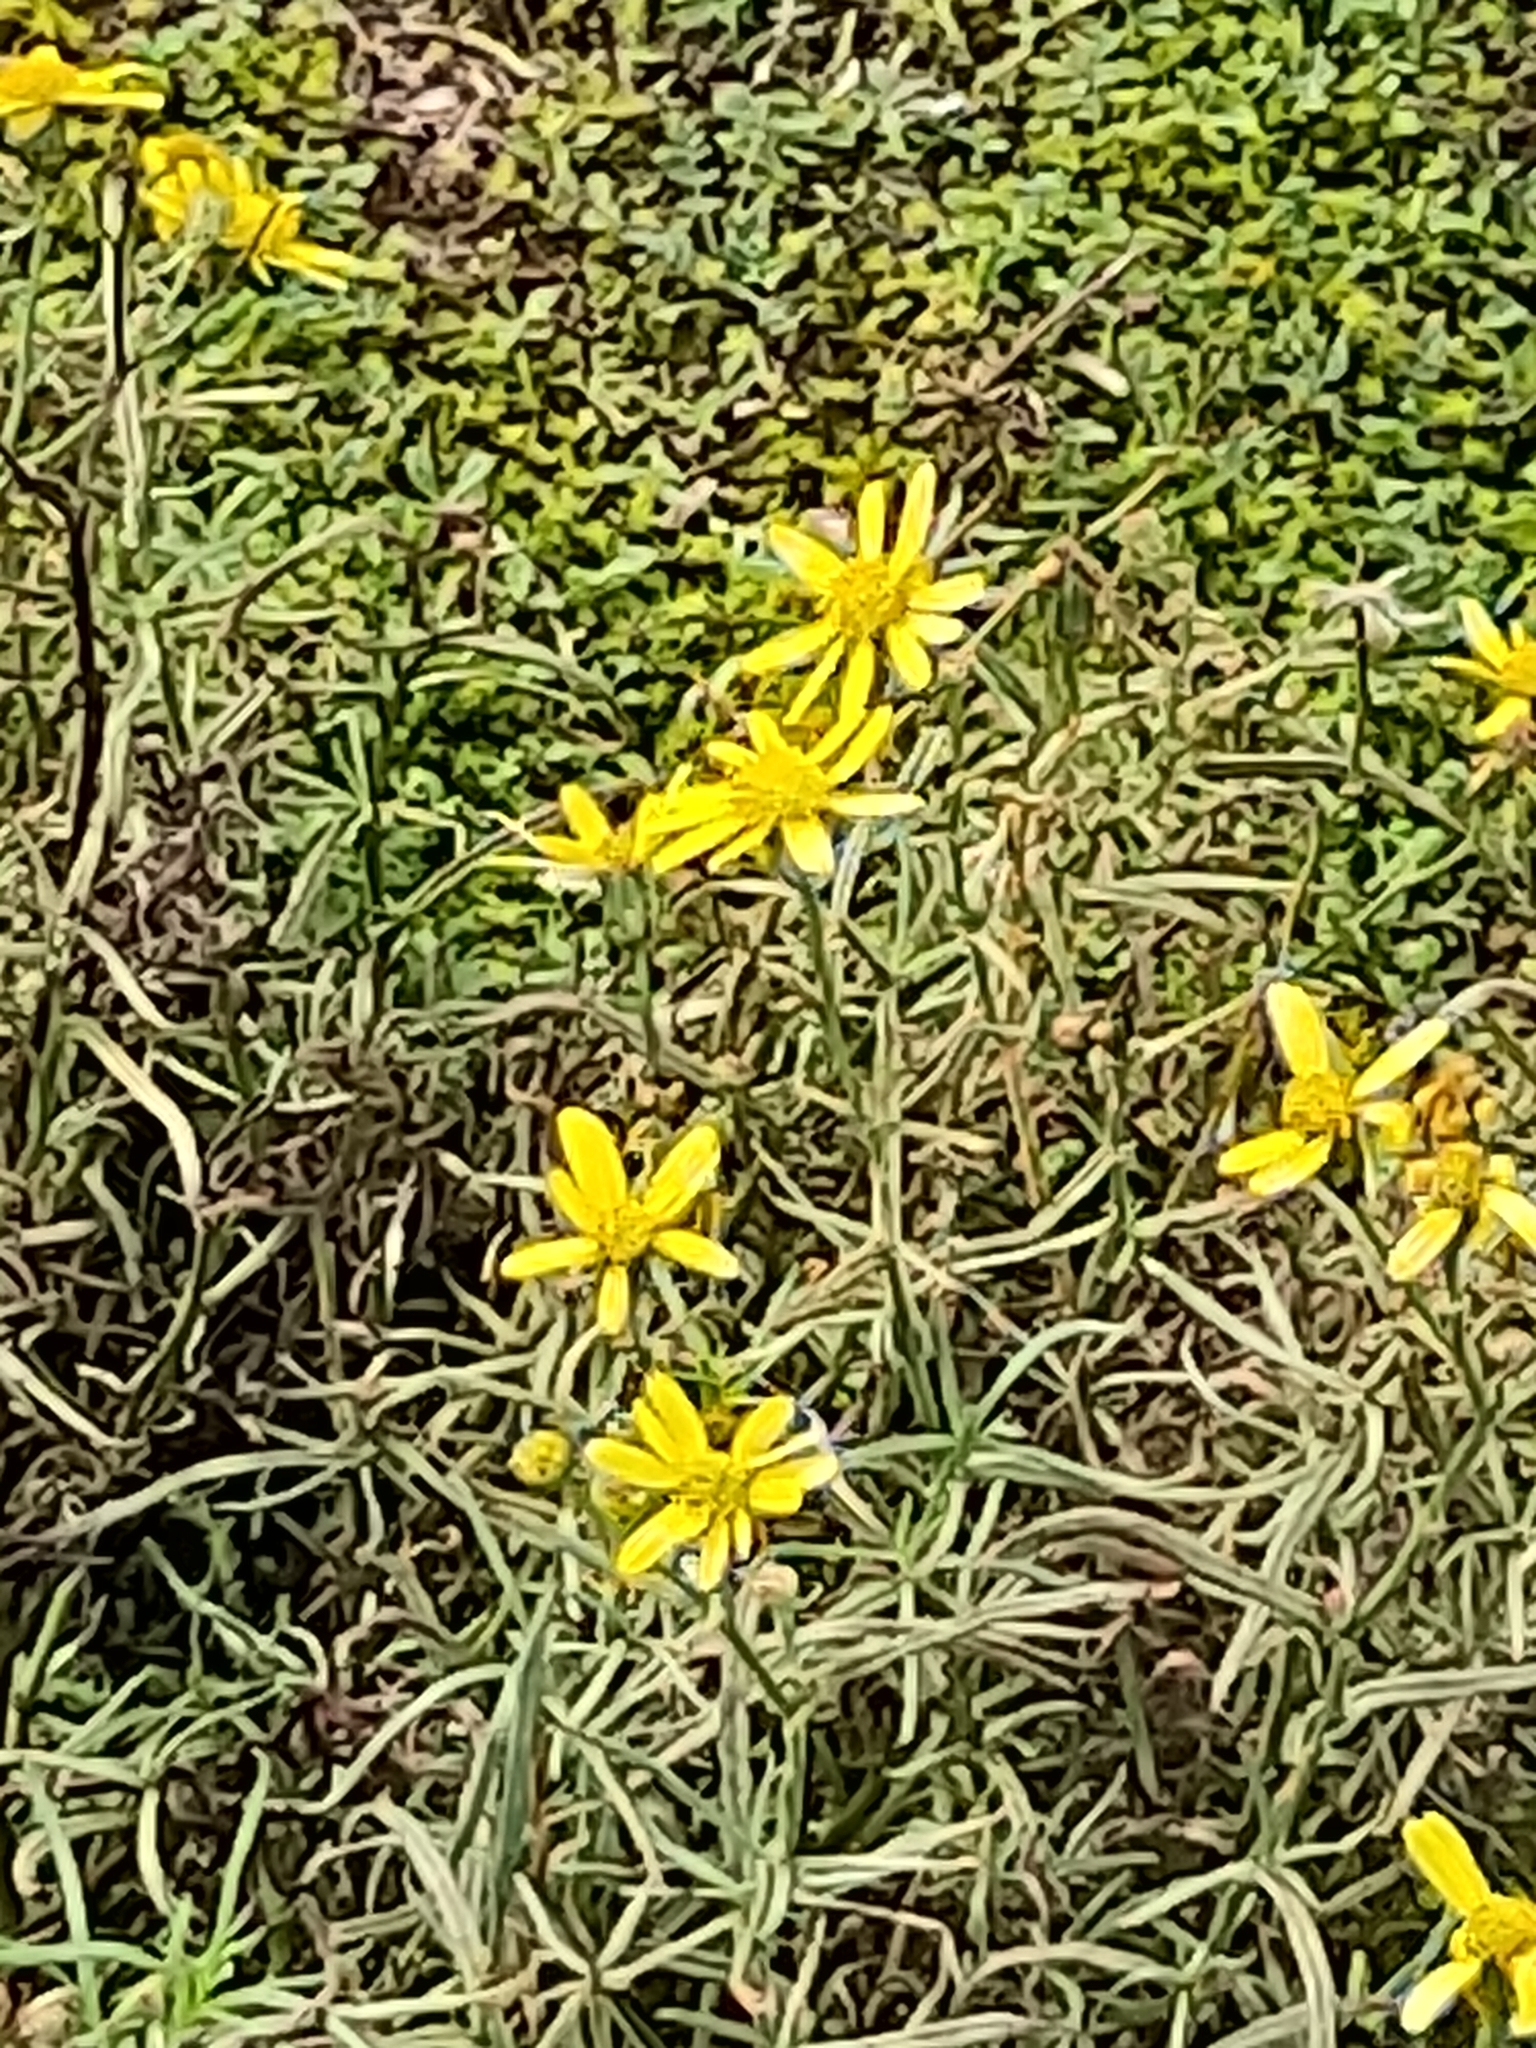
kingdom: Plantae
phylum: Tracheophyta
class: Magnoliopsida
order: Asterales
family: Asteraceae
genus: Senecio
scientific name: Senecio inaequidens
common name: Narrow-leaved ragwort
